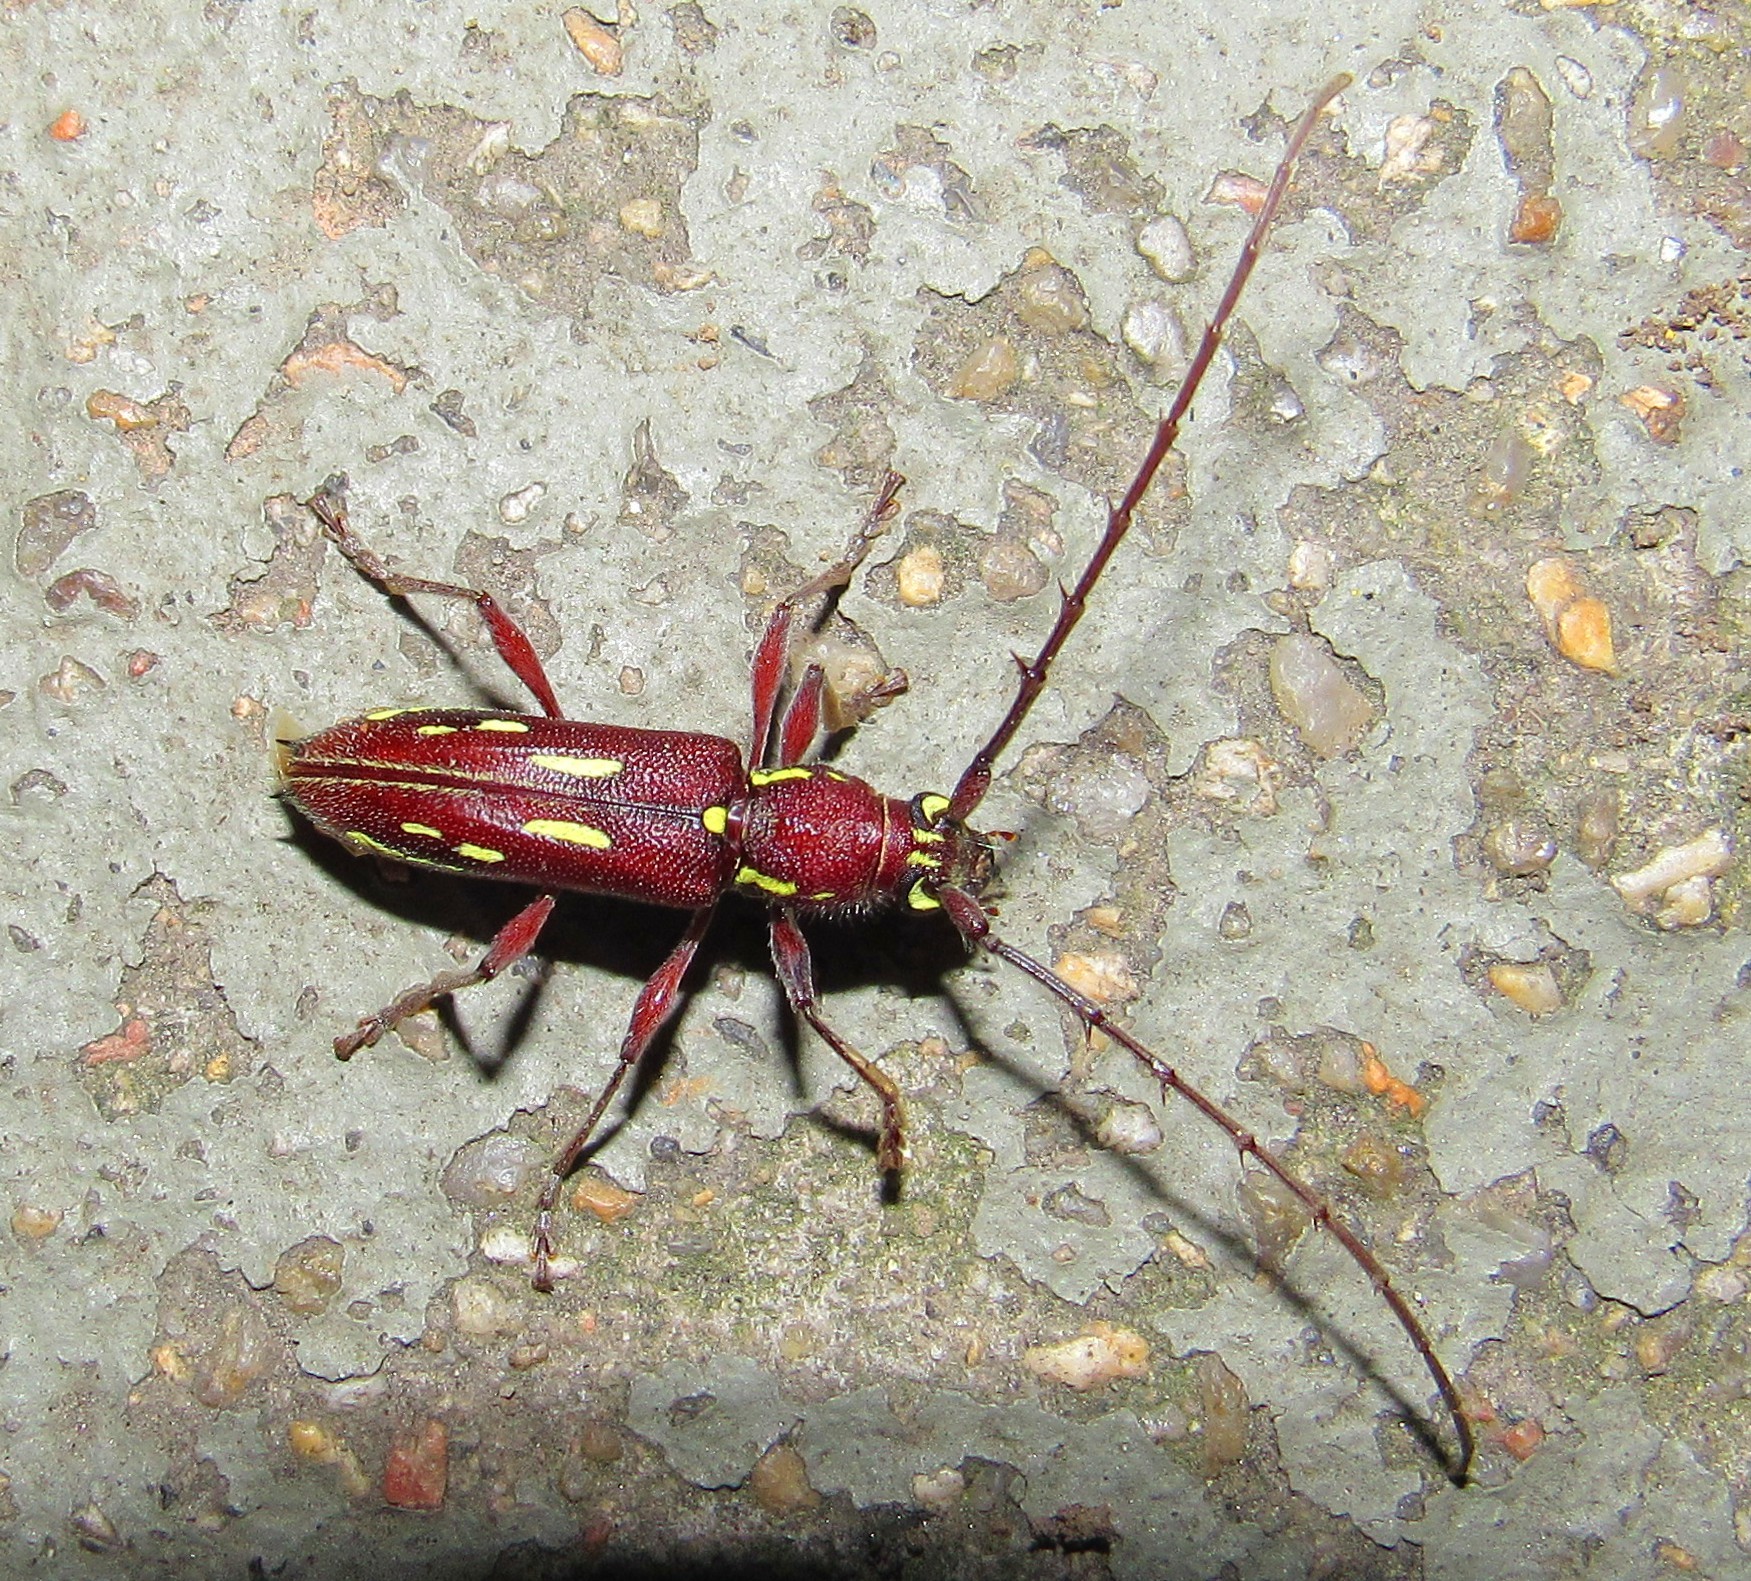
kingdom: Animalia
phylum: Arthropoda
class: Insecta
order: Coleoptera
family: Cerambycidae
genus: Ambonus
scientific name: Ambonus distinctus
